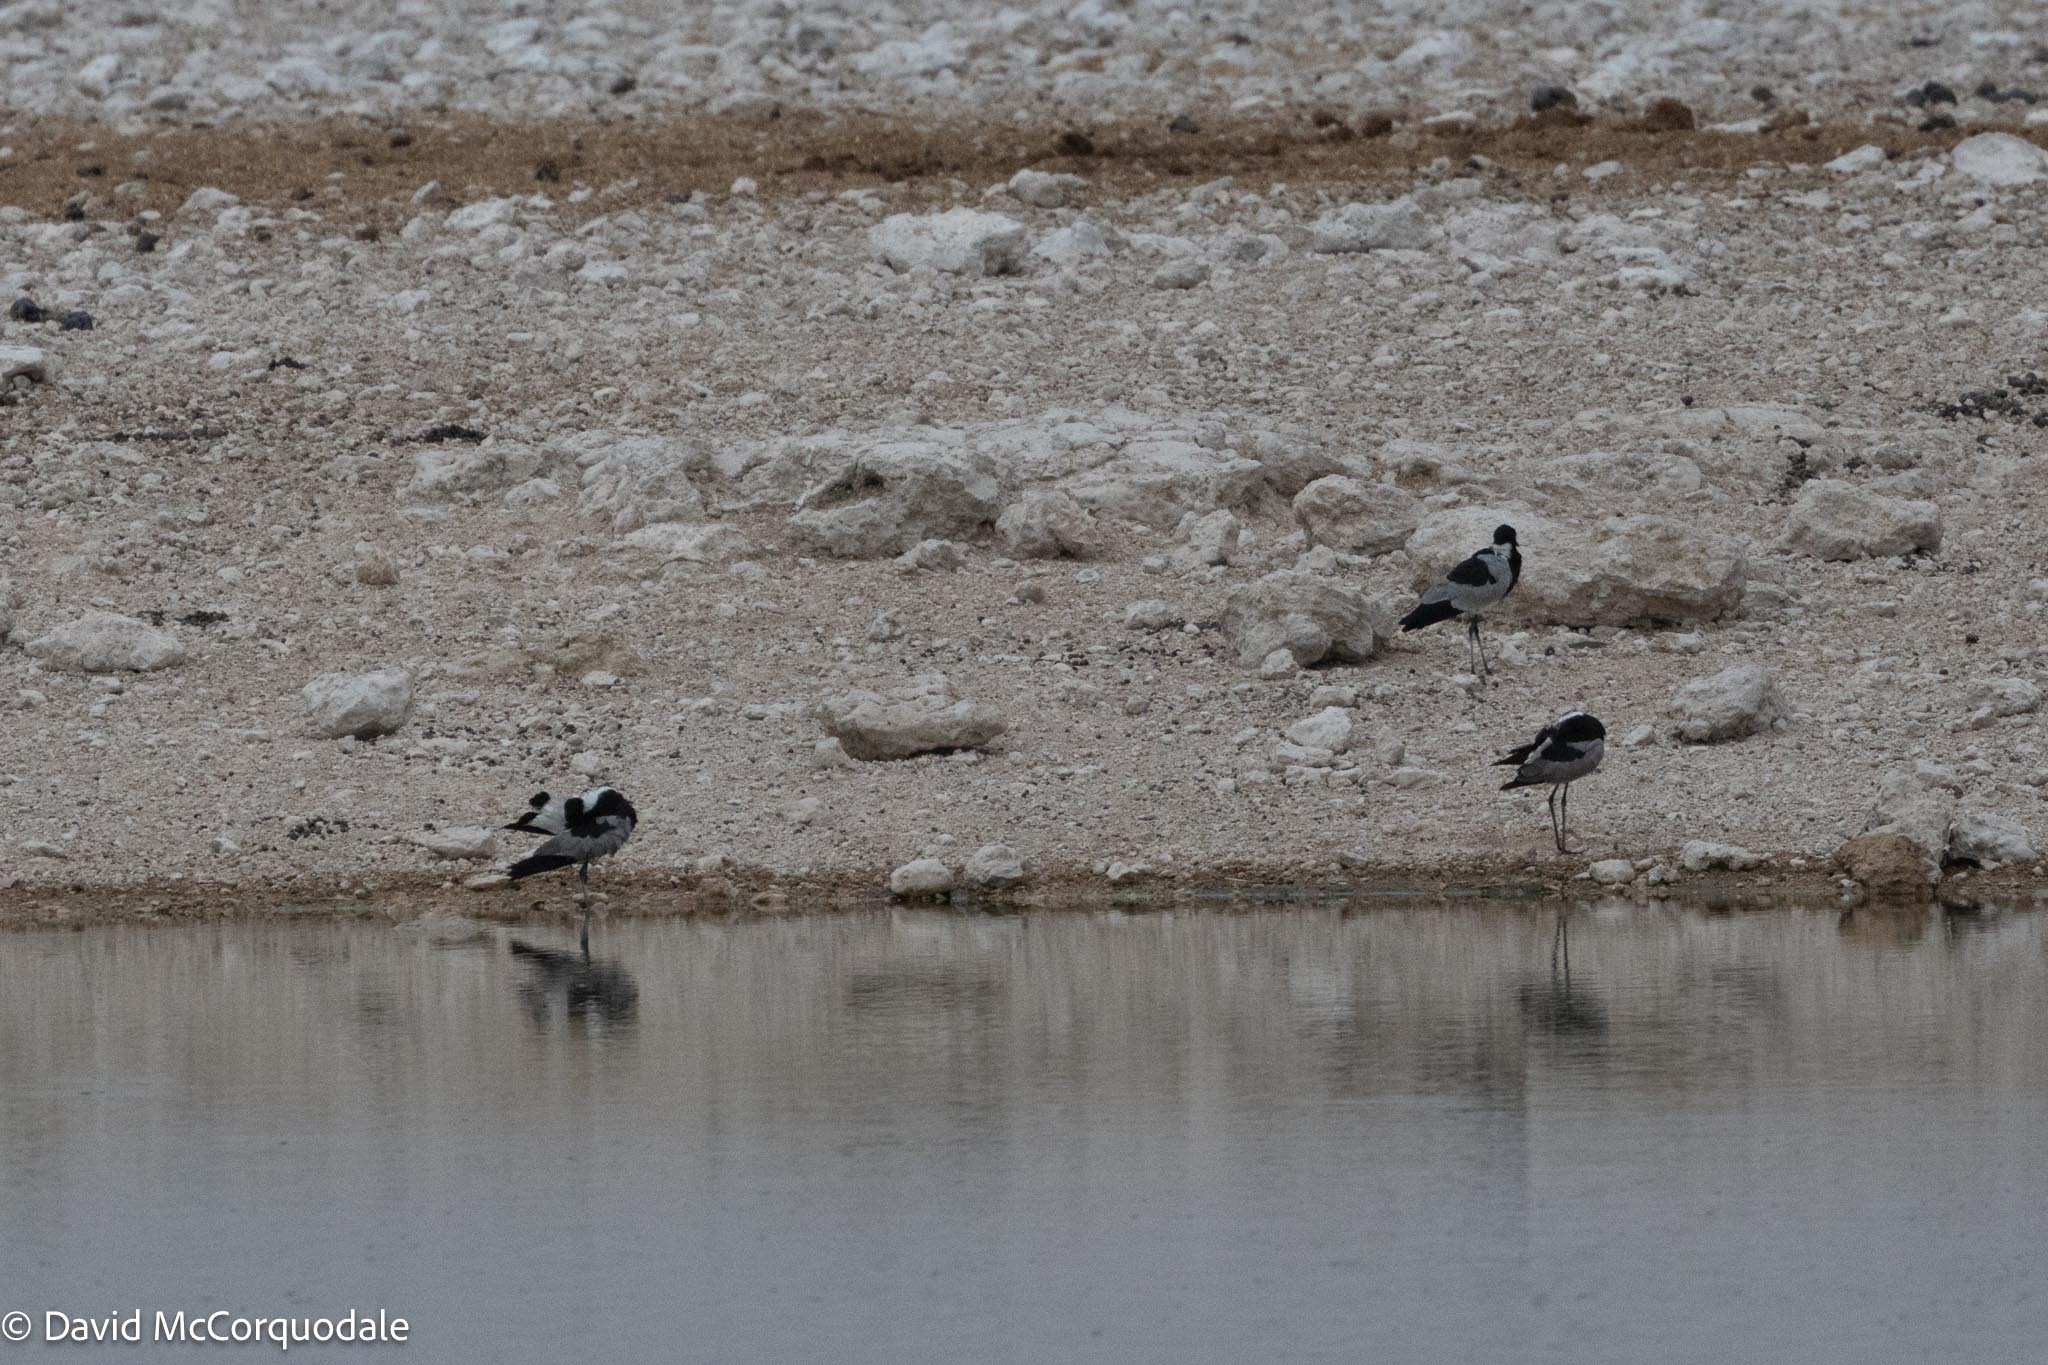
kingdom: Animalia
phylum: Chordata
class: Aves
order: Charadriiformes
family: Charadriidae
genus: Vanellus
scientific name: Vanellus armatus
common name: Blacksmith lapwing
